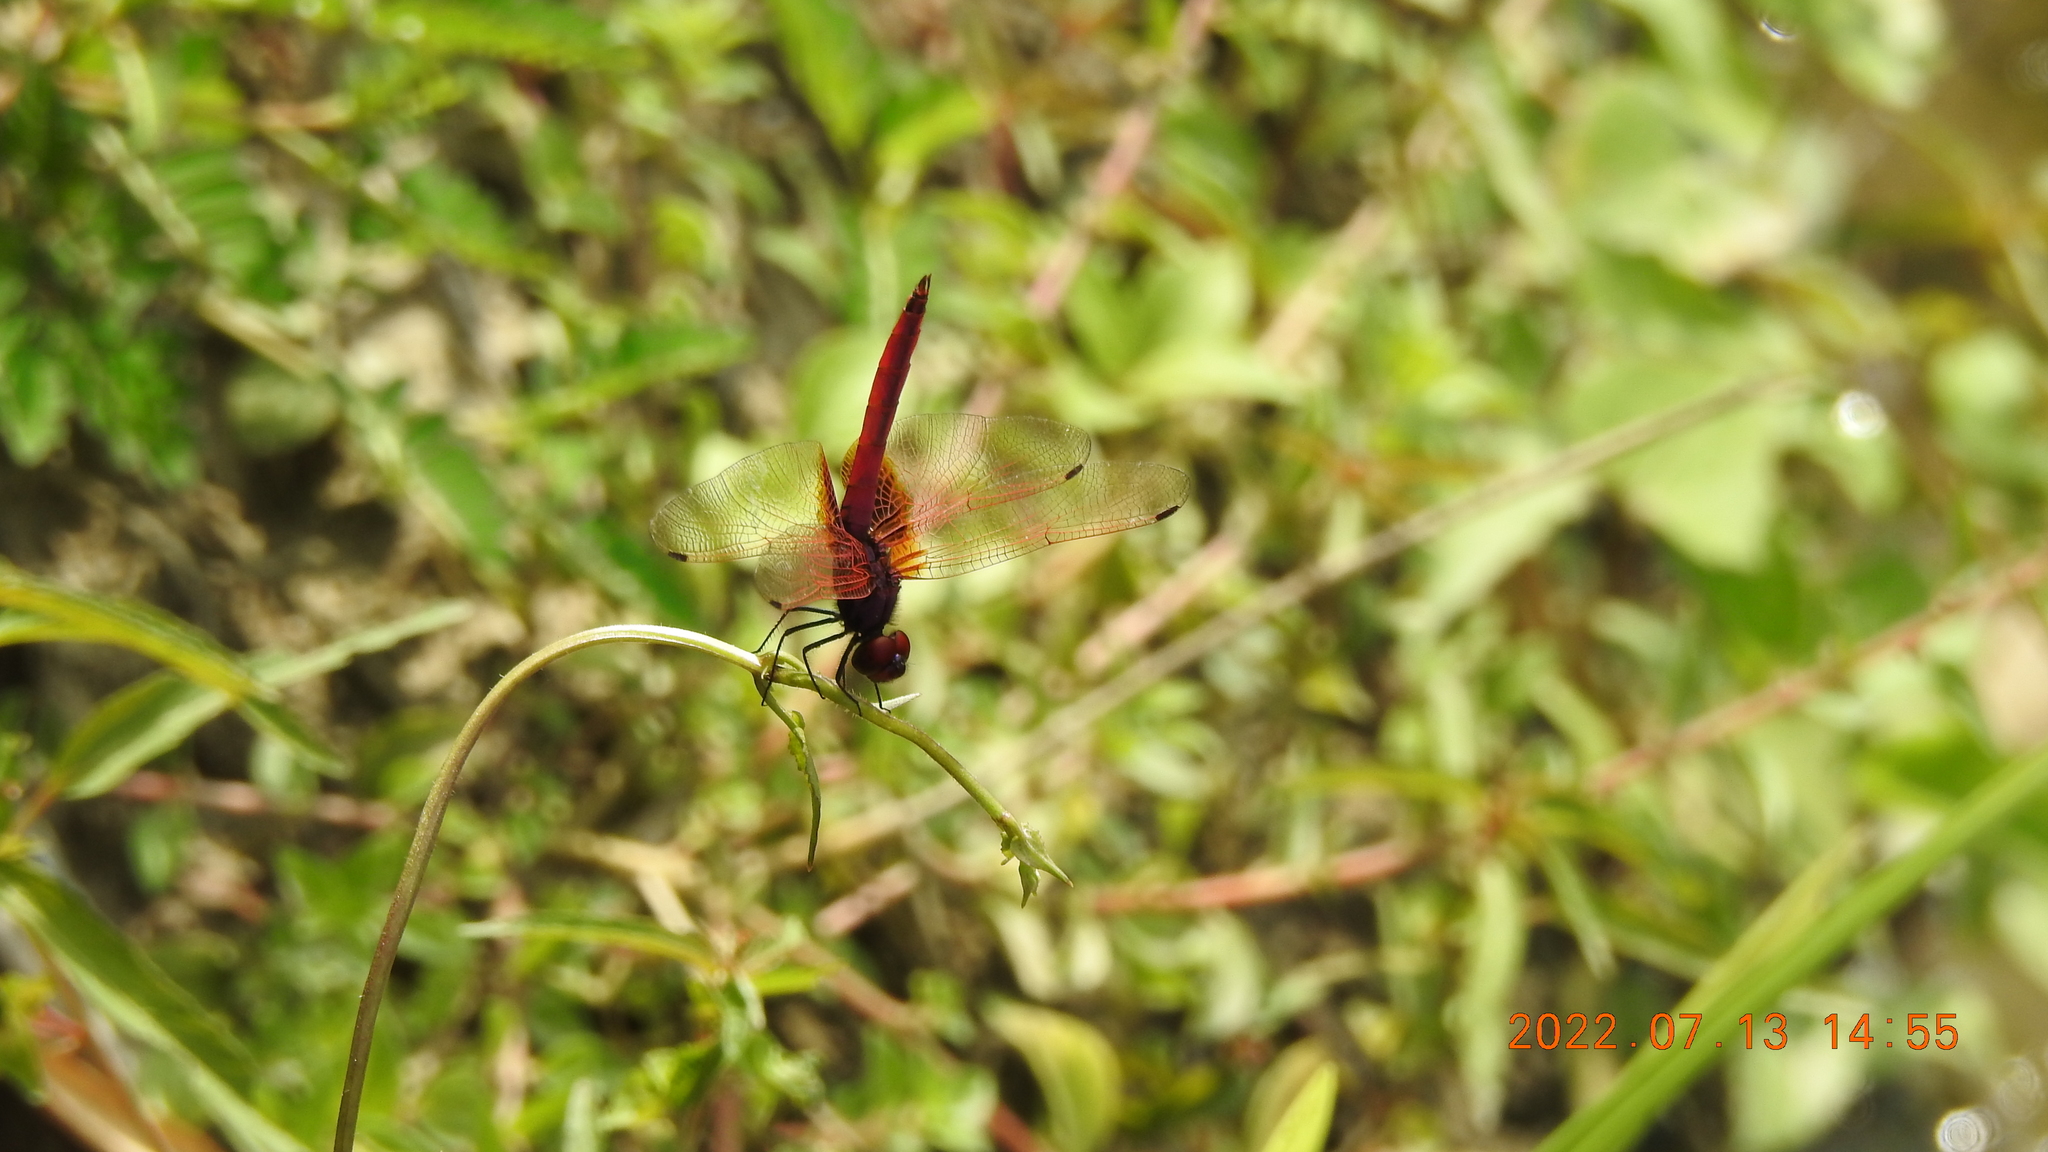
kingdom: Animalia
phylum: Arthropoda
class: Insecta
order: Odonata
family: Libellulidae
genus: Trithemis
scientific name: Trithemis aurora
